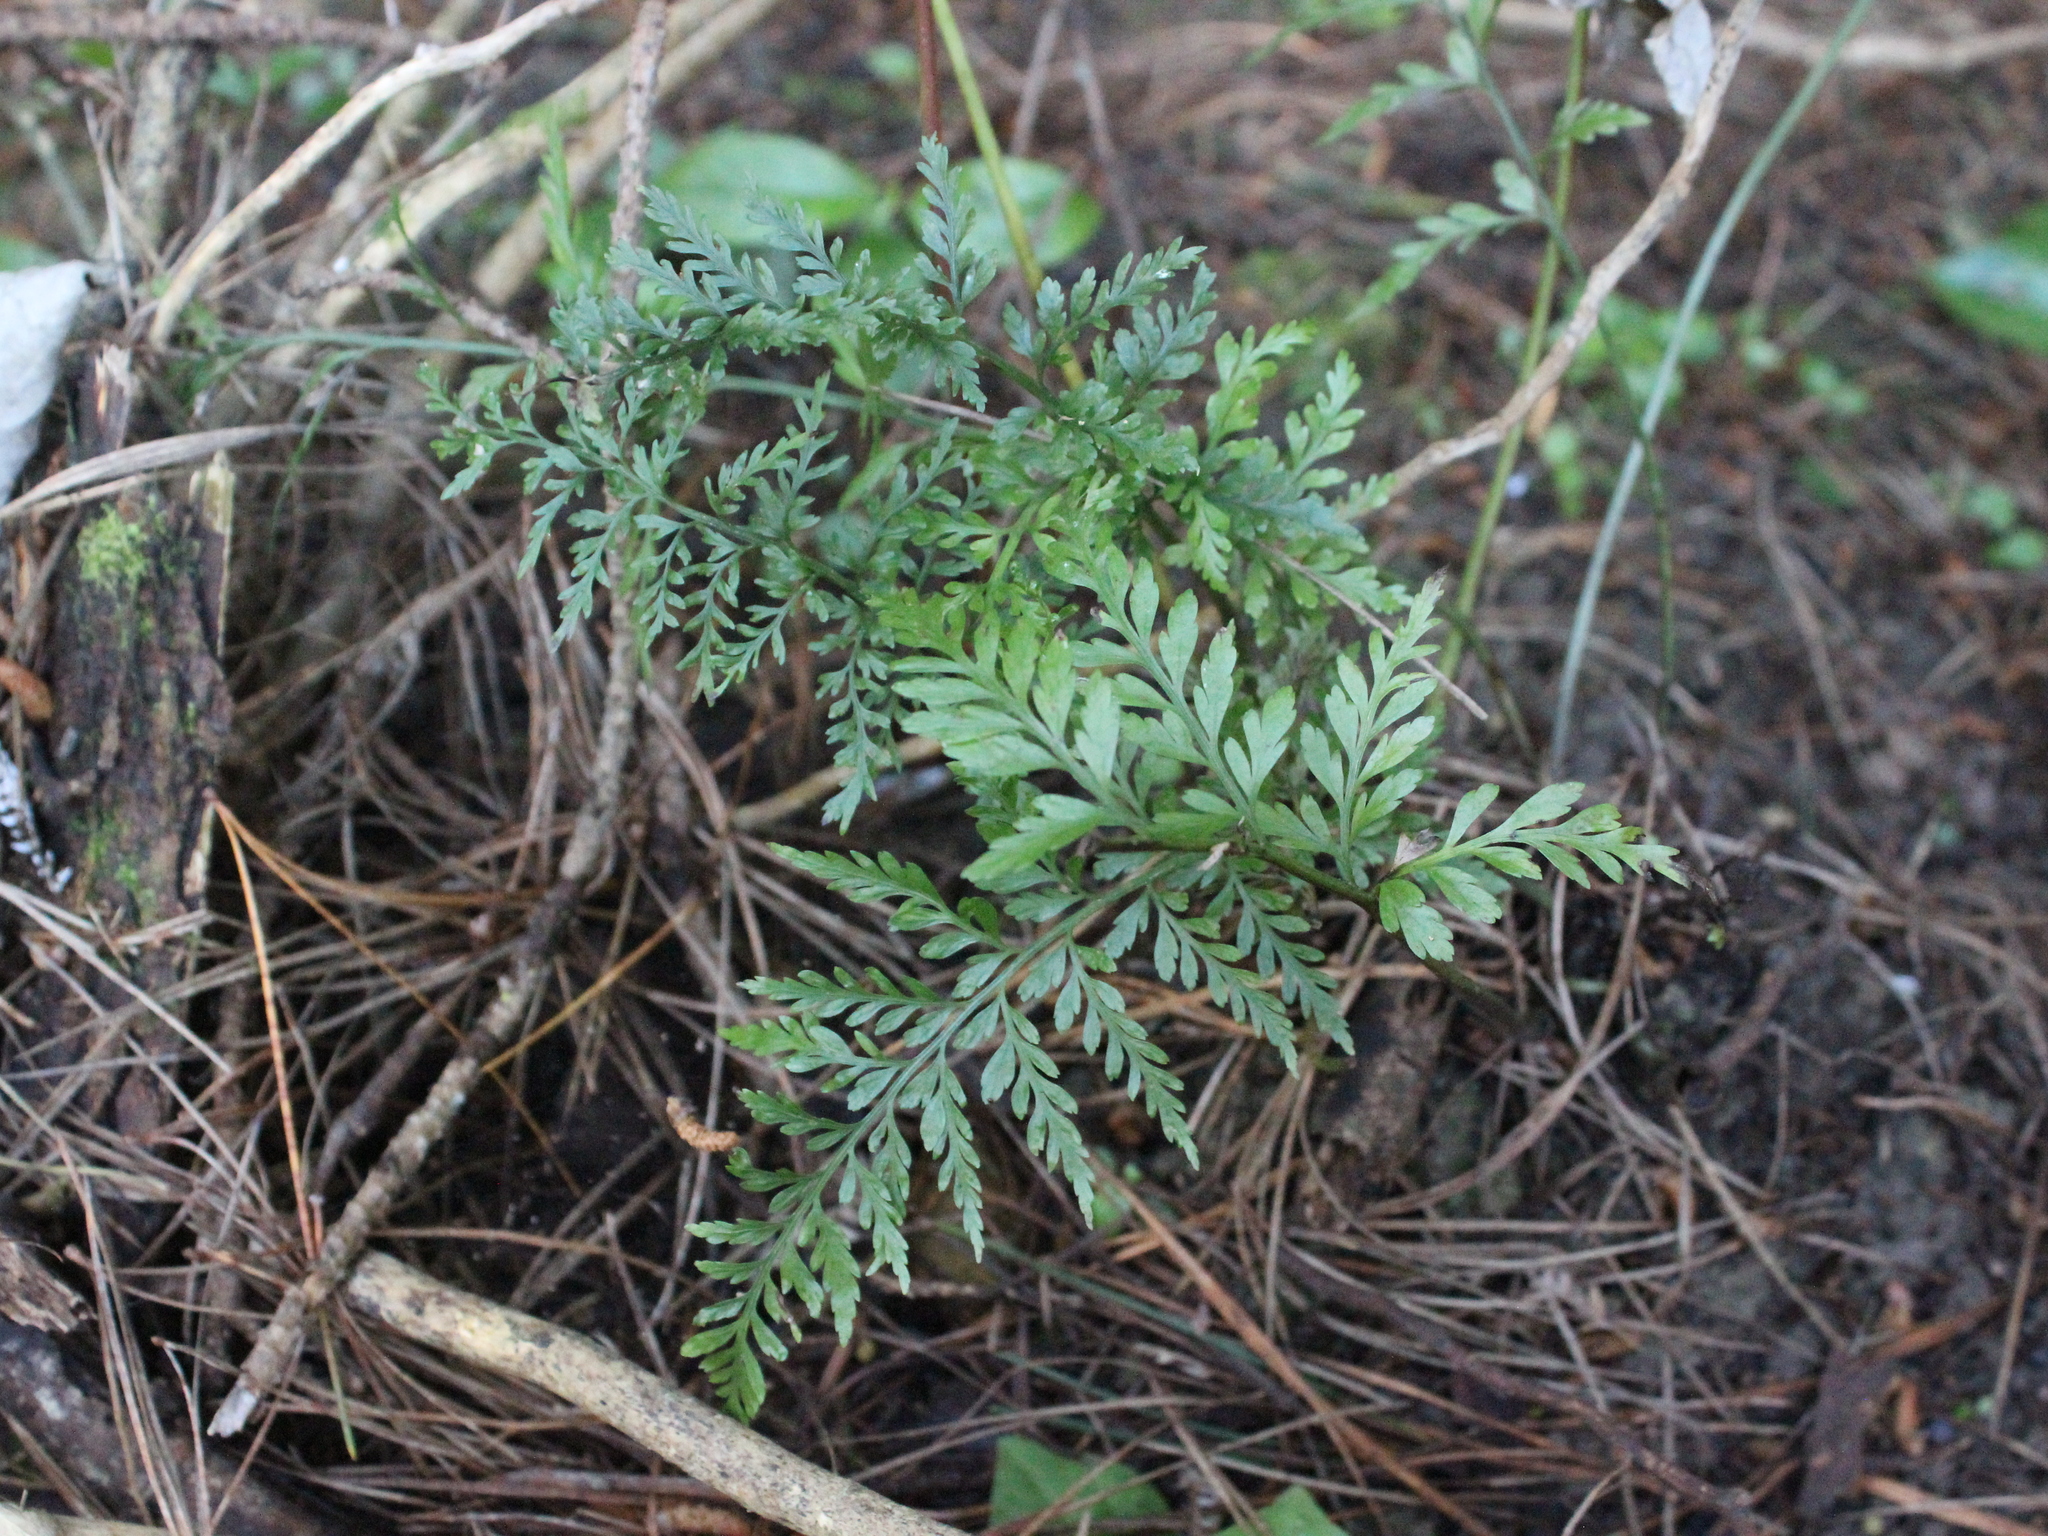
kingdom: Plantae
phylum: Tracheophyta
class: Polypodiopsida
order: Polypodiales
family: Aspleniaceae
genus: Asplenium
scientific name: Asplenium
